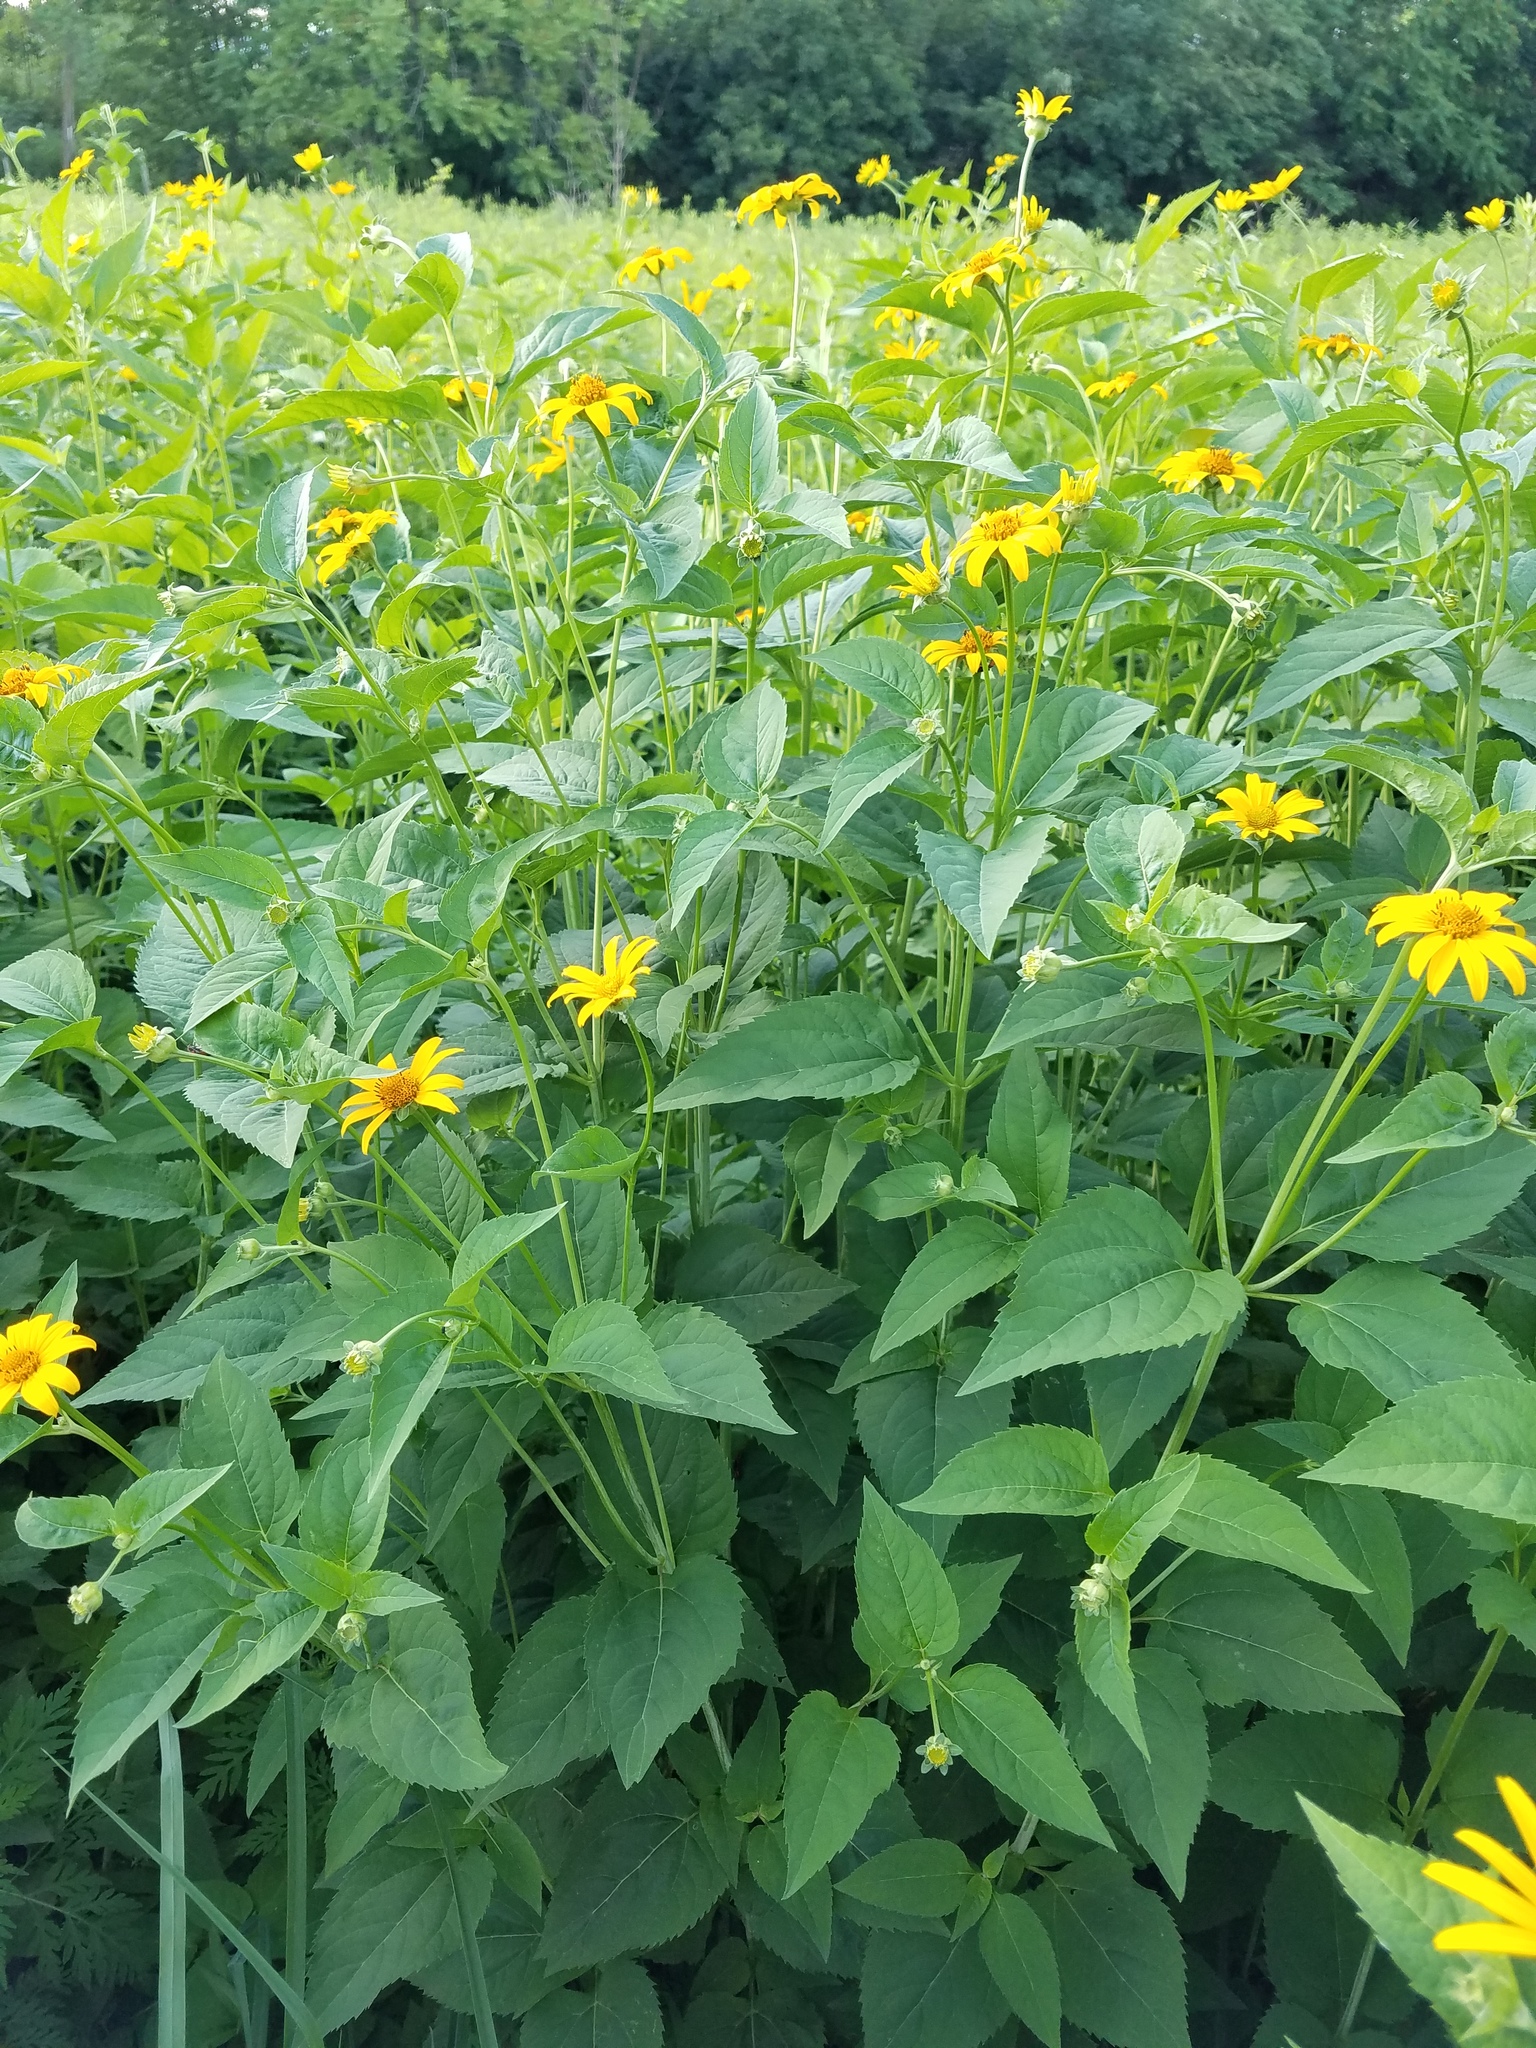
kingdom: Plantae
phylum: Tracheophyta
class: Magnoliopsida
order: Asterales
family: Asteraceae
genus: Heliopsis
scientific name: Heliopsis helianthoides
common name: False sunflower
